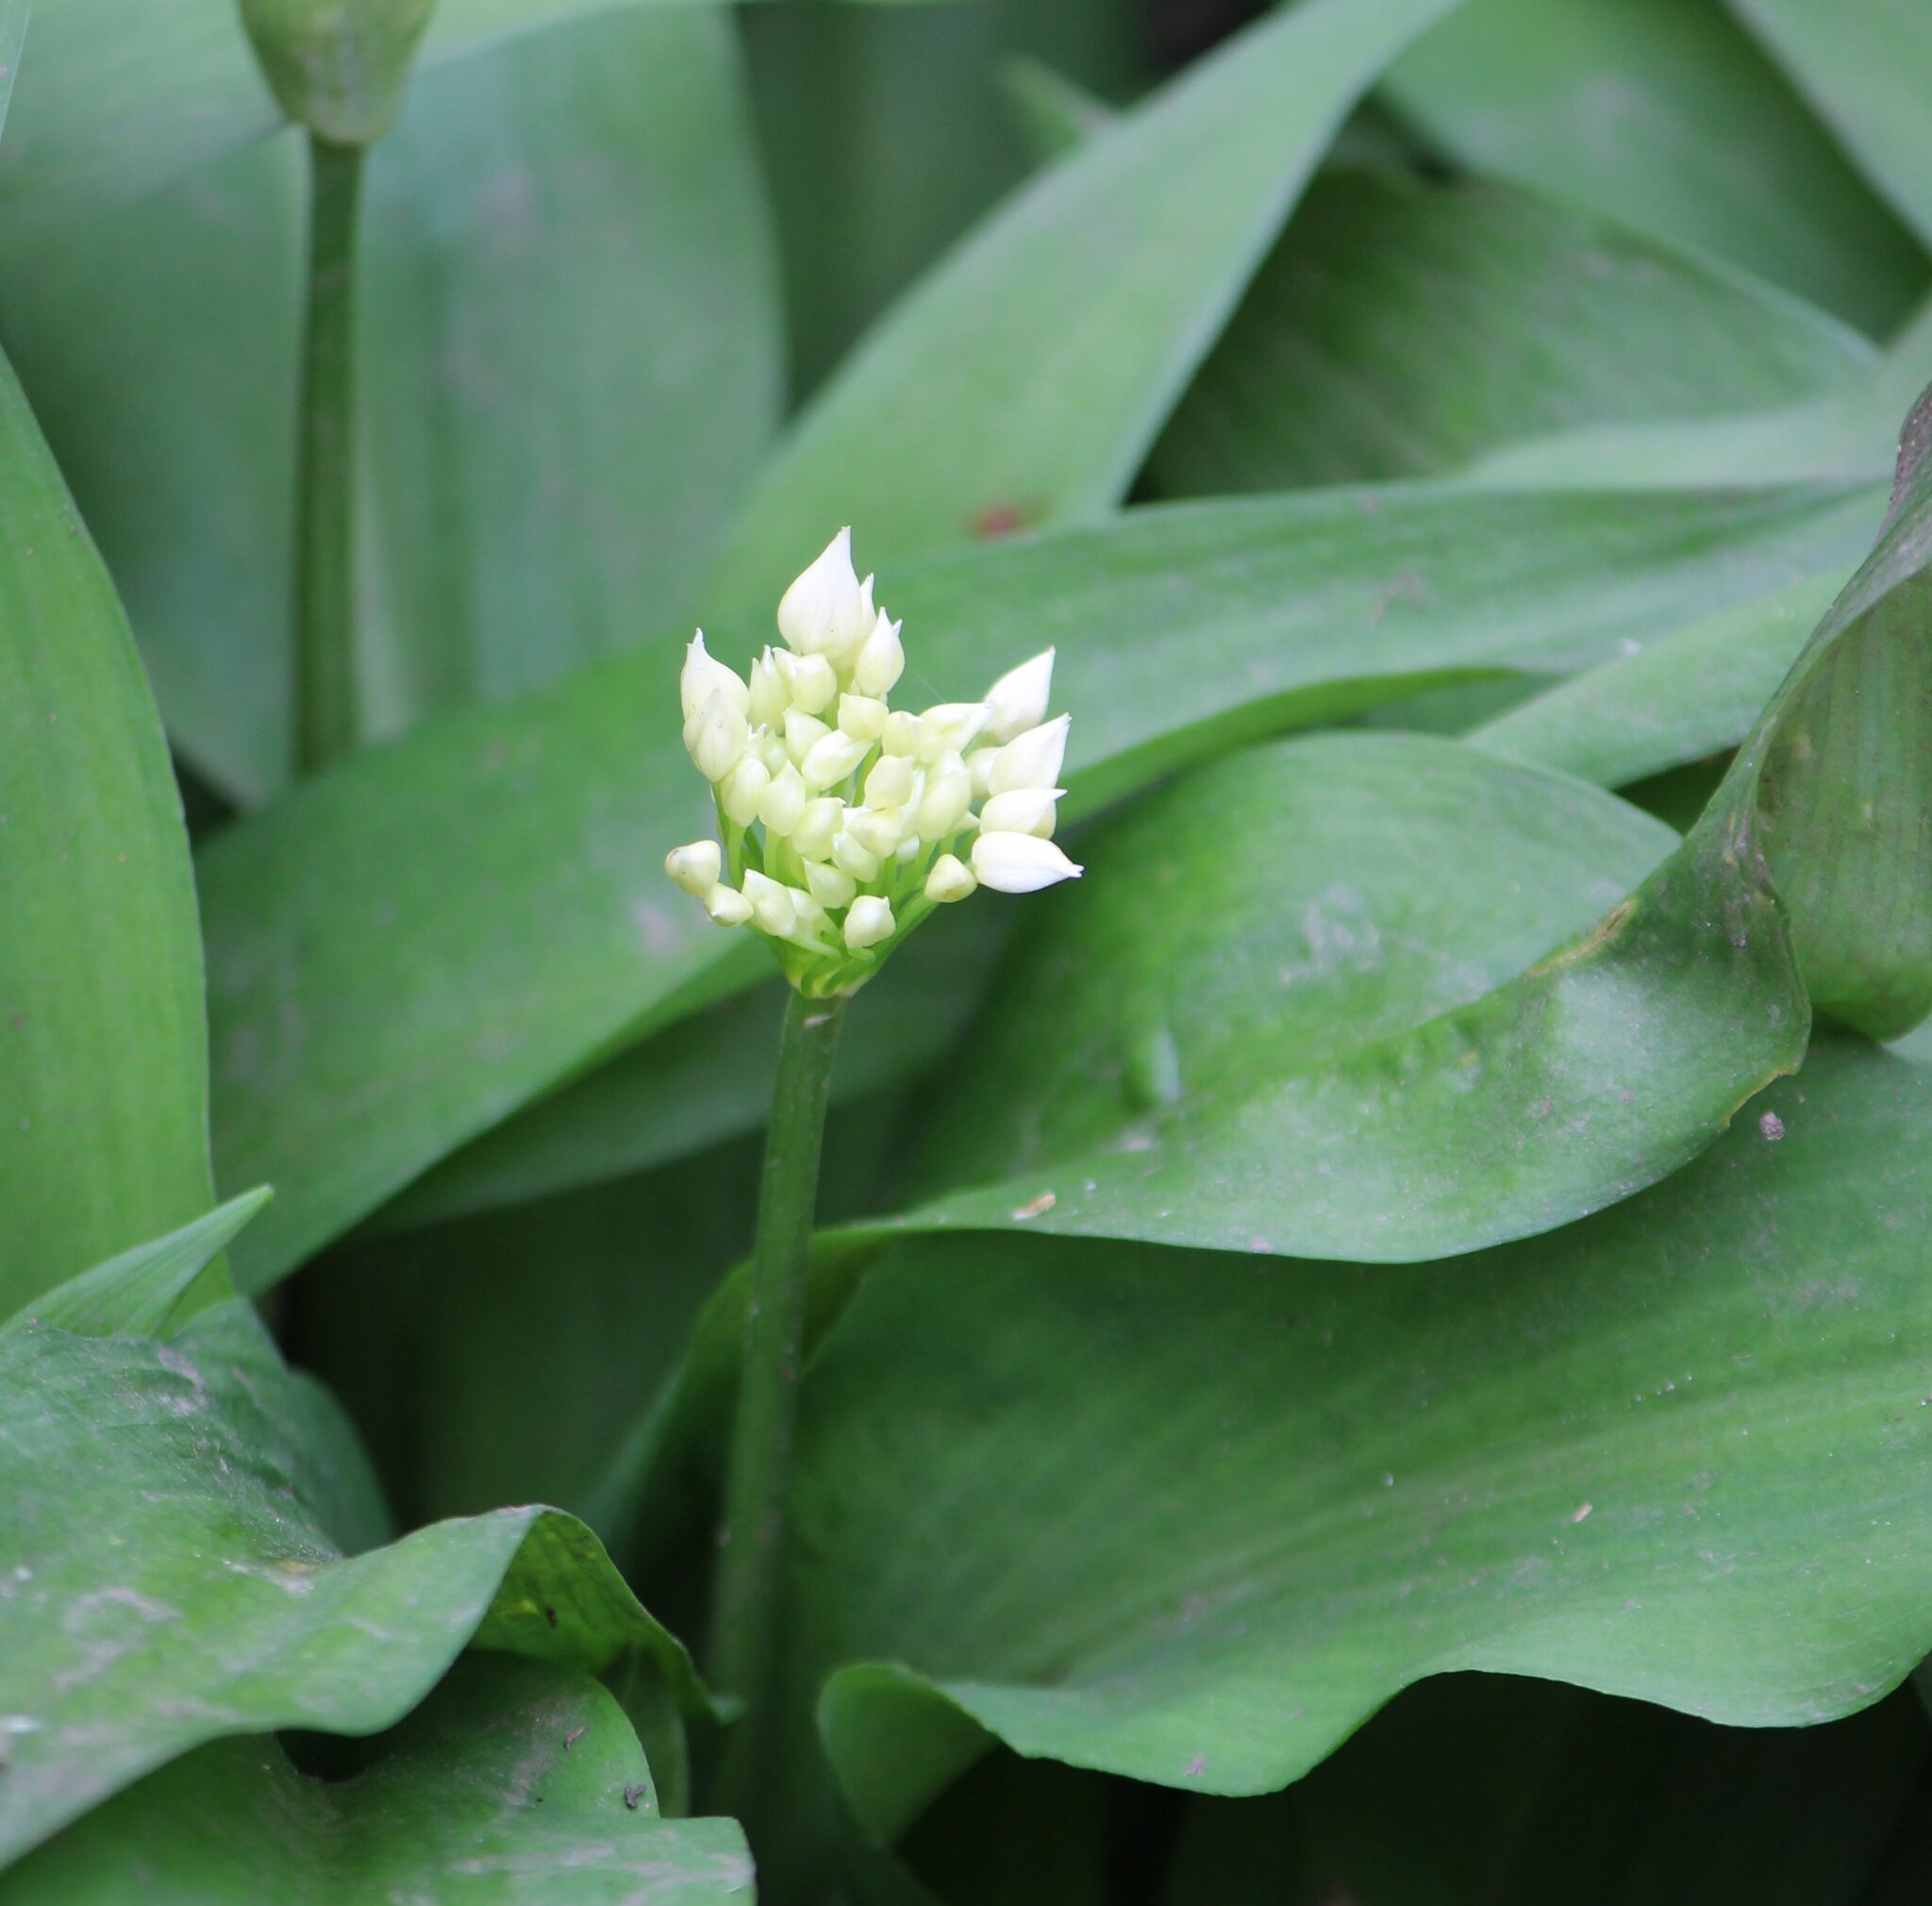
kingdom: Plantae
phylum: Tracheophyta
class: Liliopsida
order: Asparagales
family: Amaryllidaceae
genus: Allium
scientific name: Allium ursinum
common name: Ramsons
